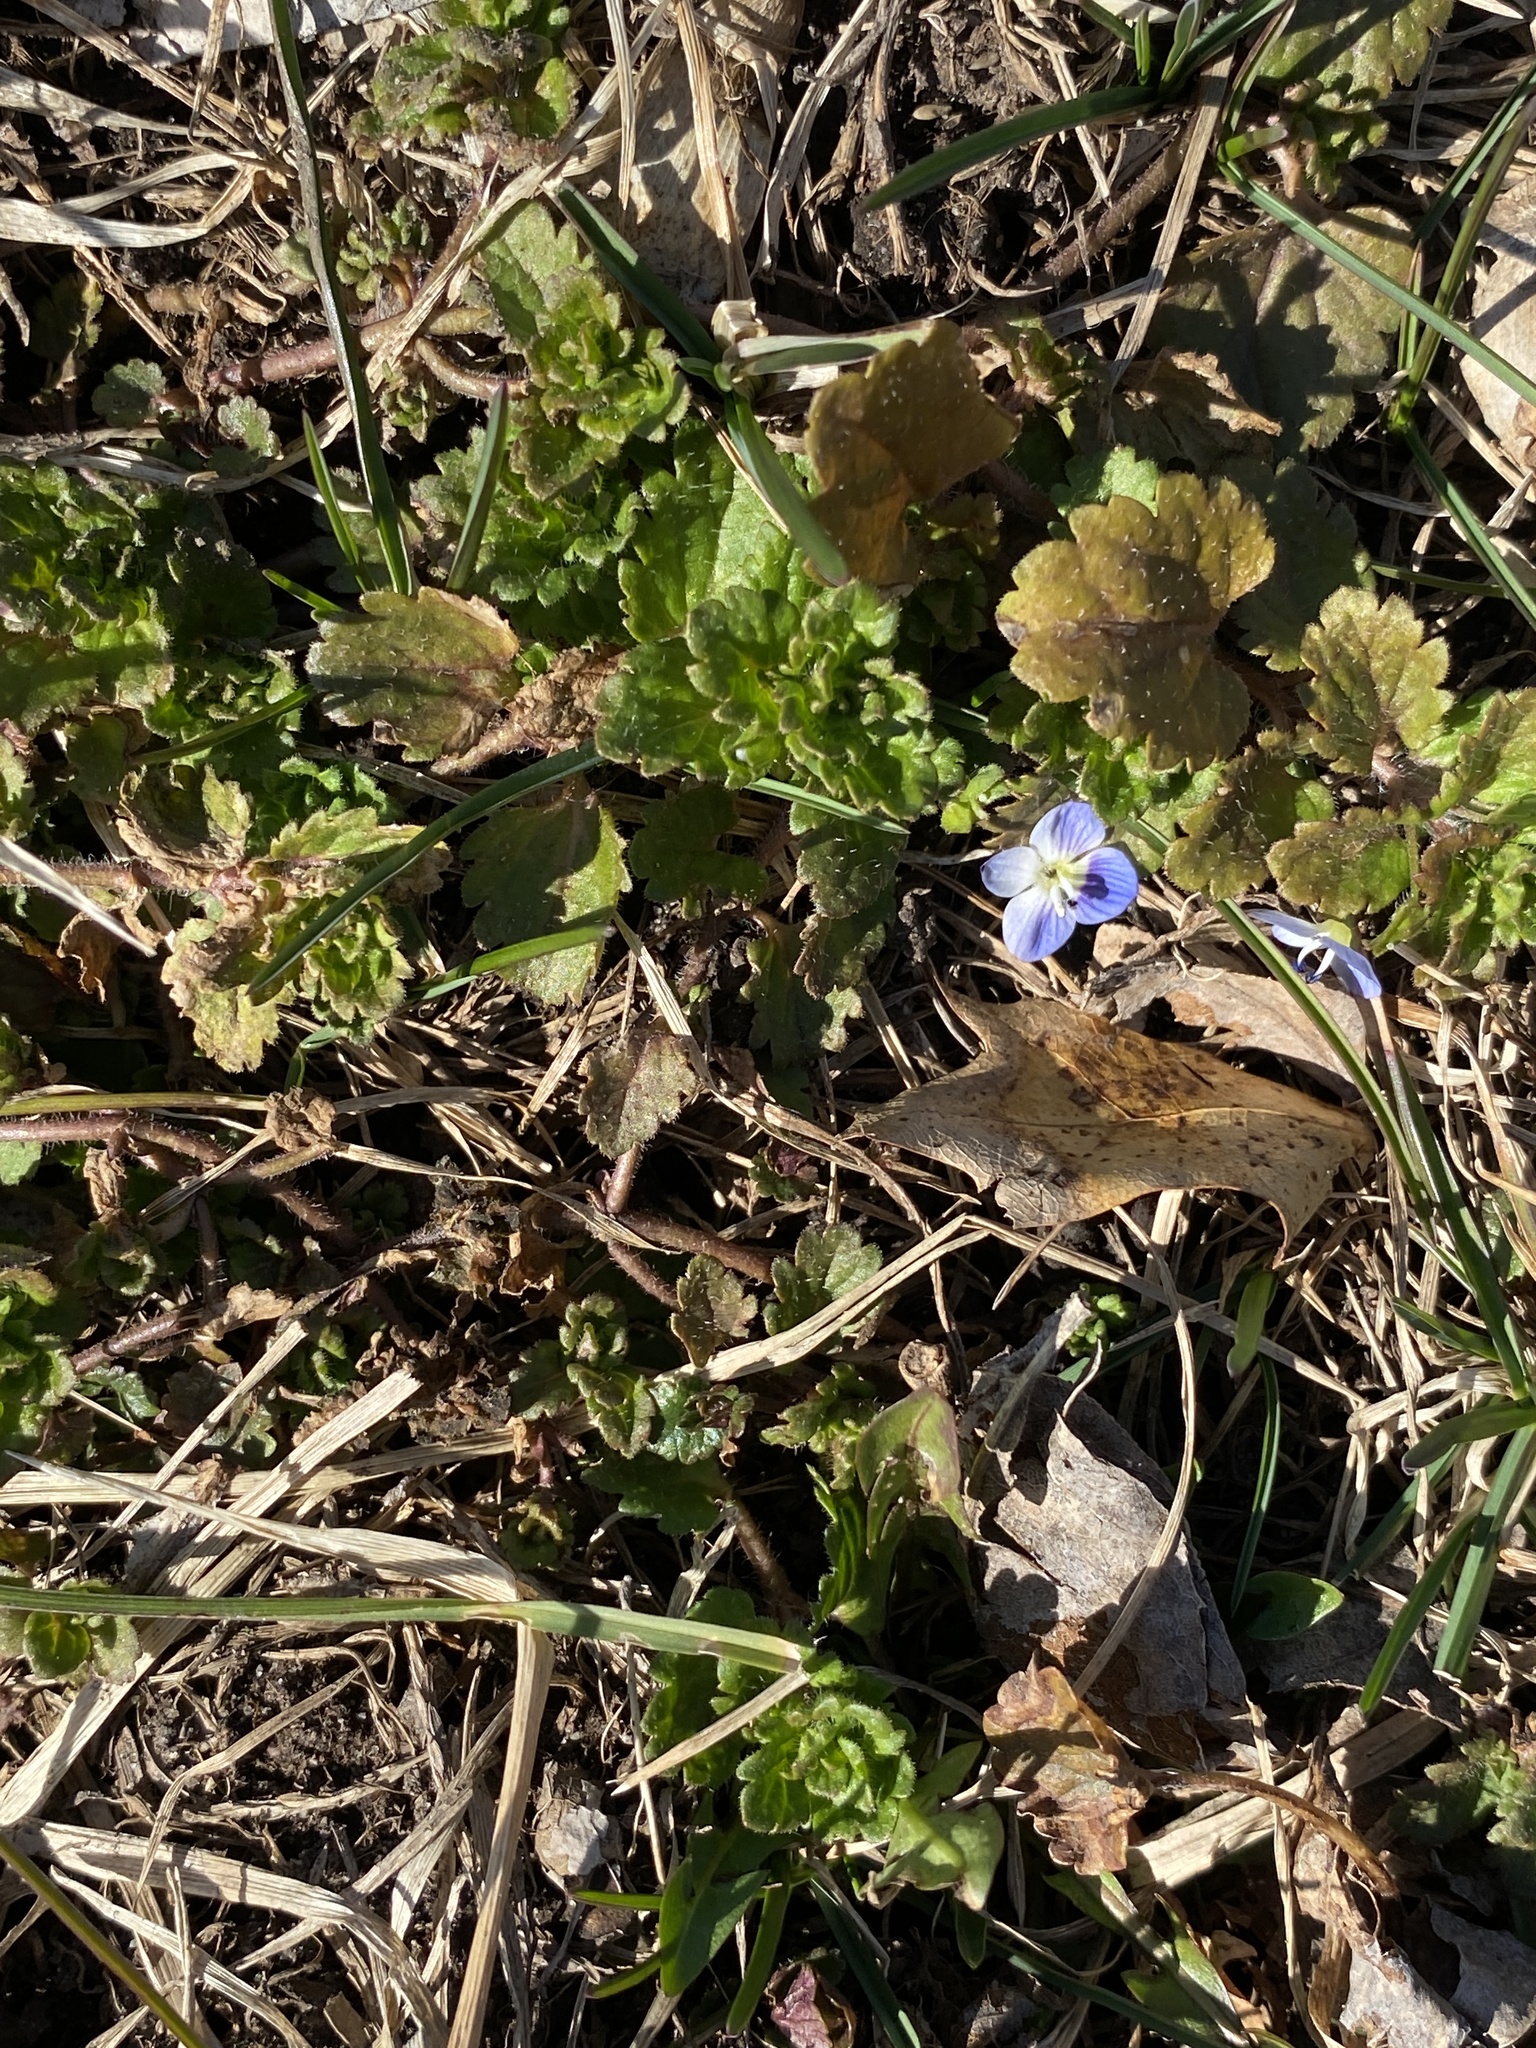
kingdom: Plantae
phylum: Tracheophyta
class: Magnoliopsida
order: Lamiales
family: Plantaginaceae
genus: Veronica
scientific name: Veronica persica
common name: Common field-speedwell
